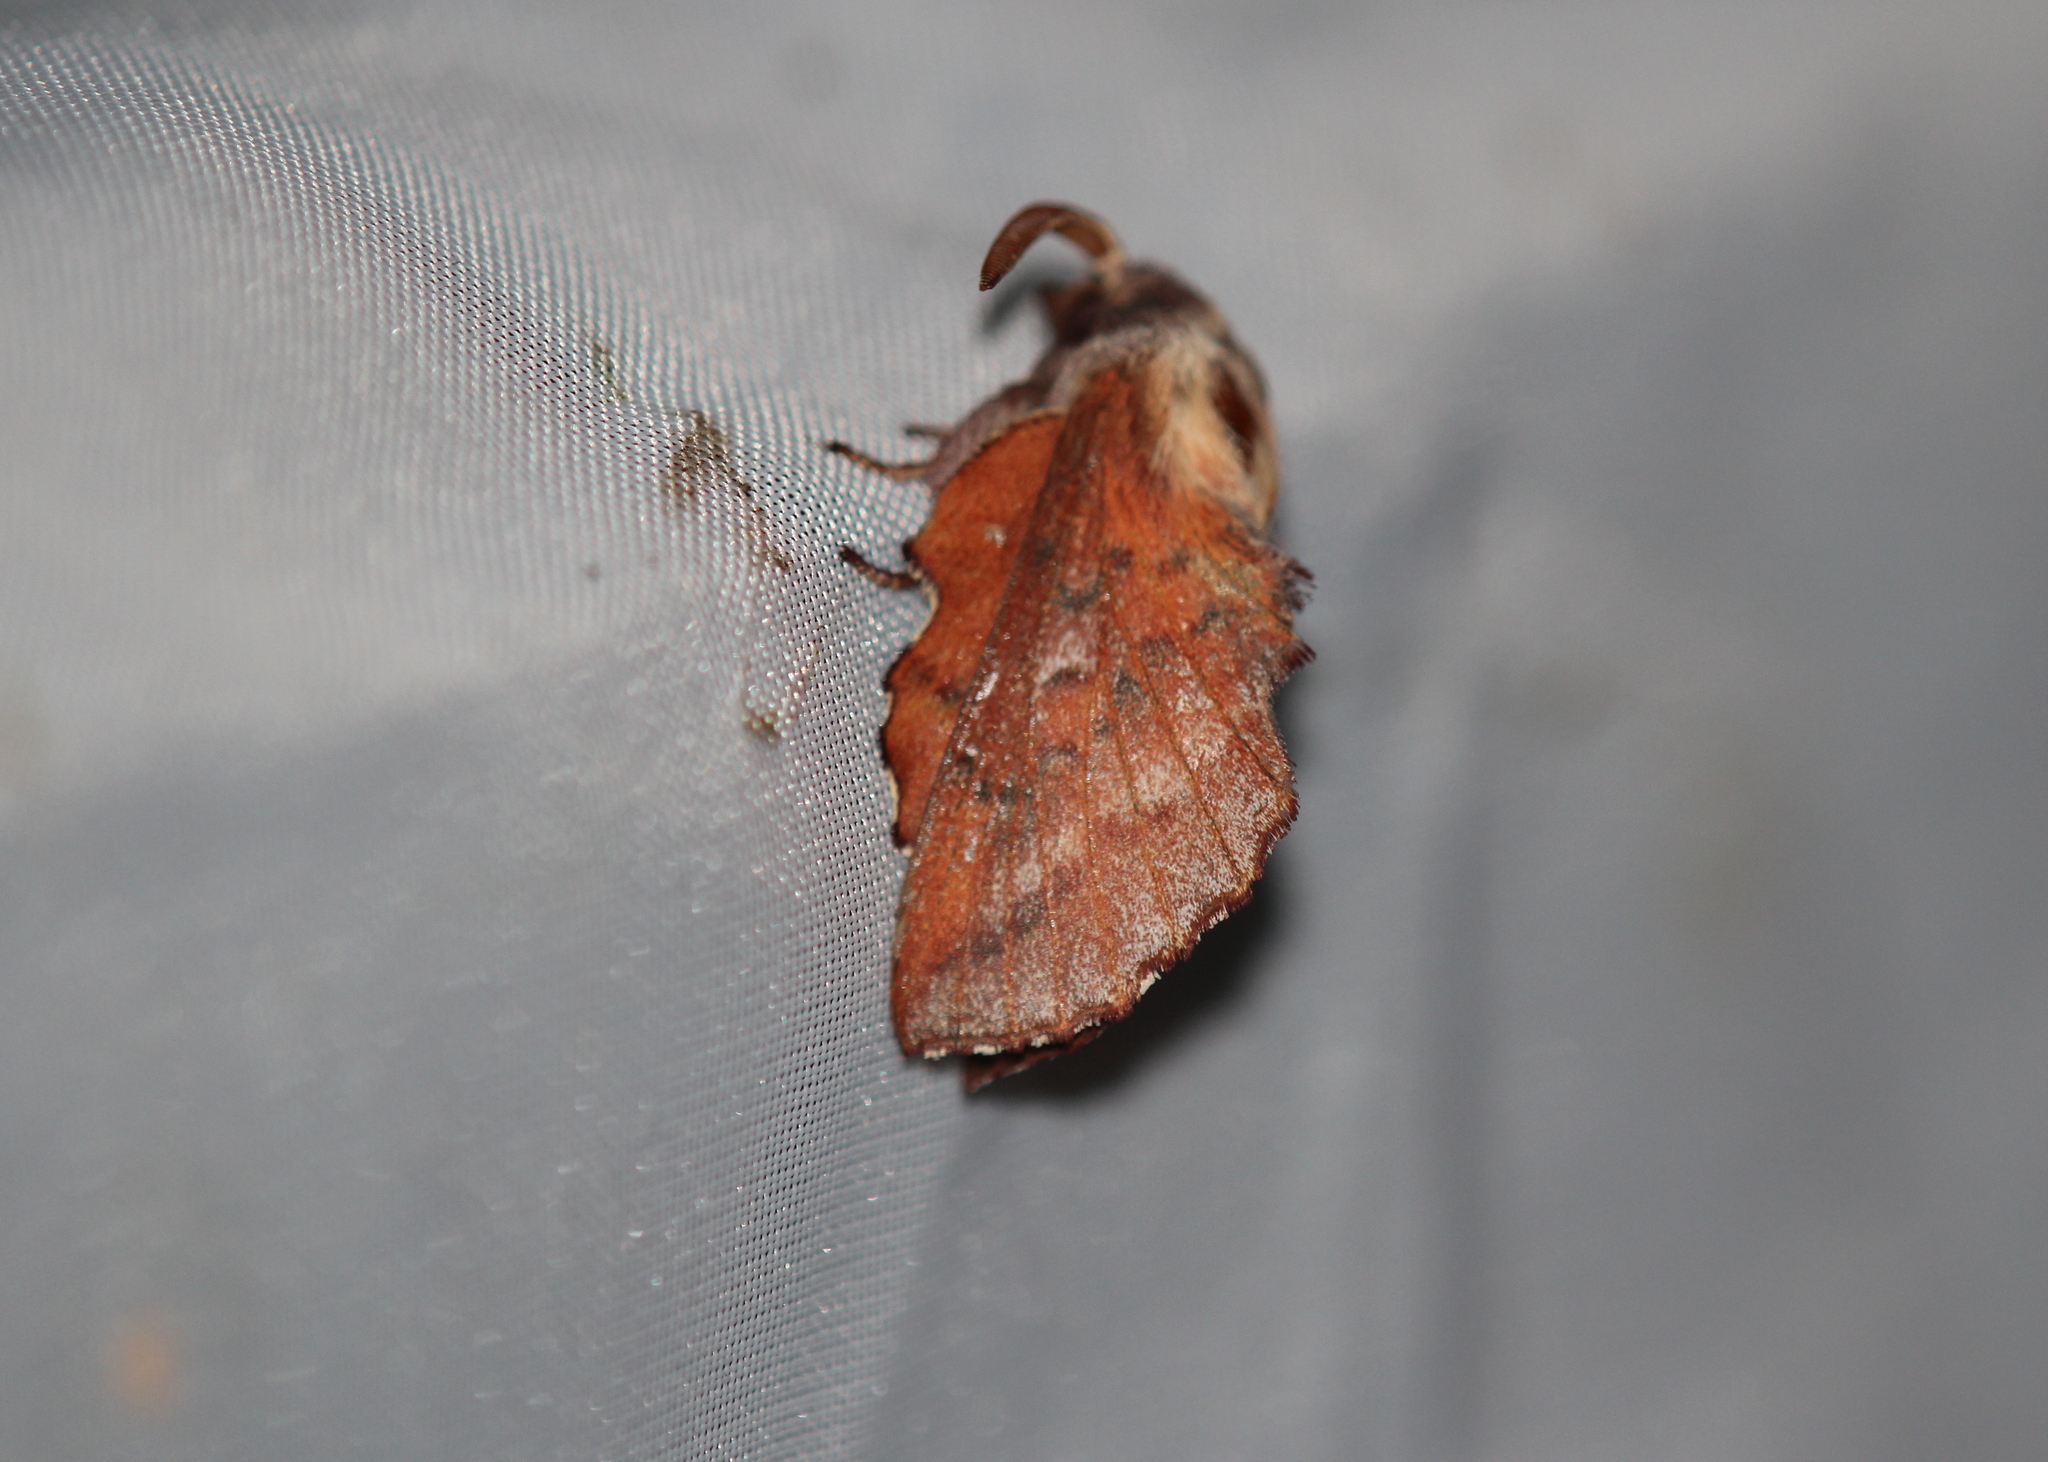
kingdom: Animalia
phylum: Arthropoda
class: Insecta
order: Lepidoptera
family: Lasiocampidae
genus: Phyllodesma
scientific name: Phyllodesma americana
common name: American lappet moth
